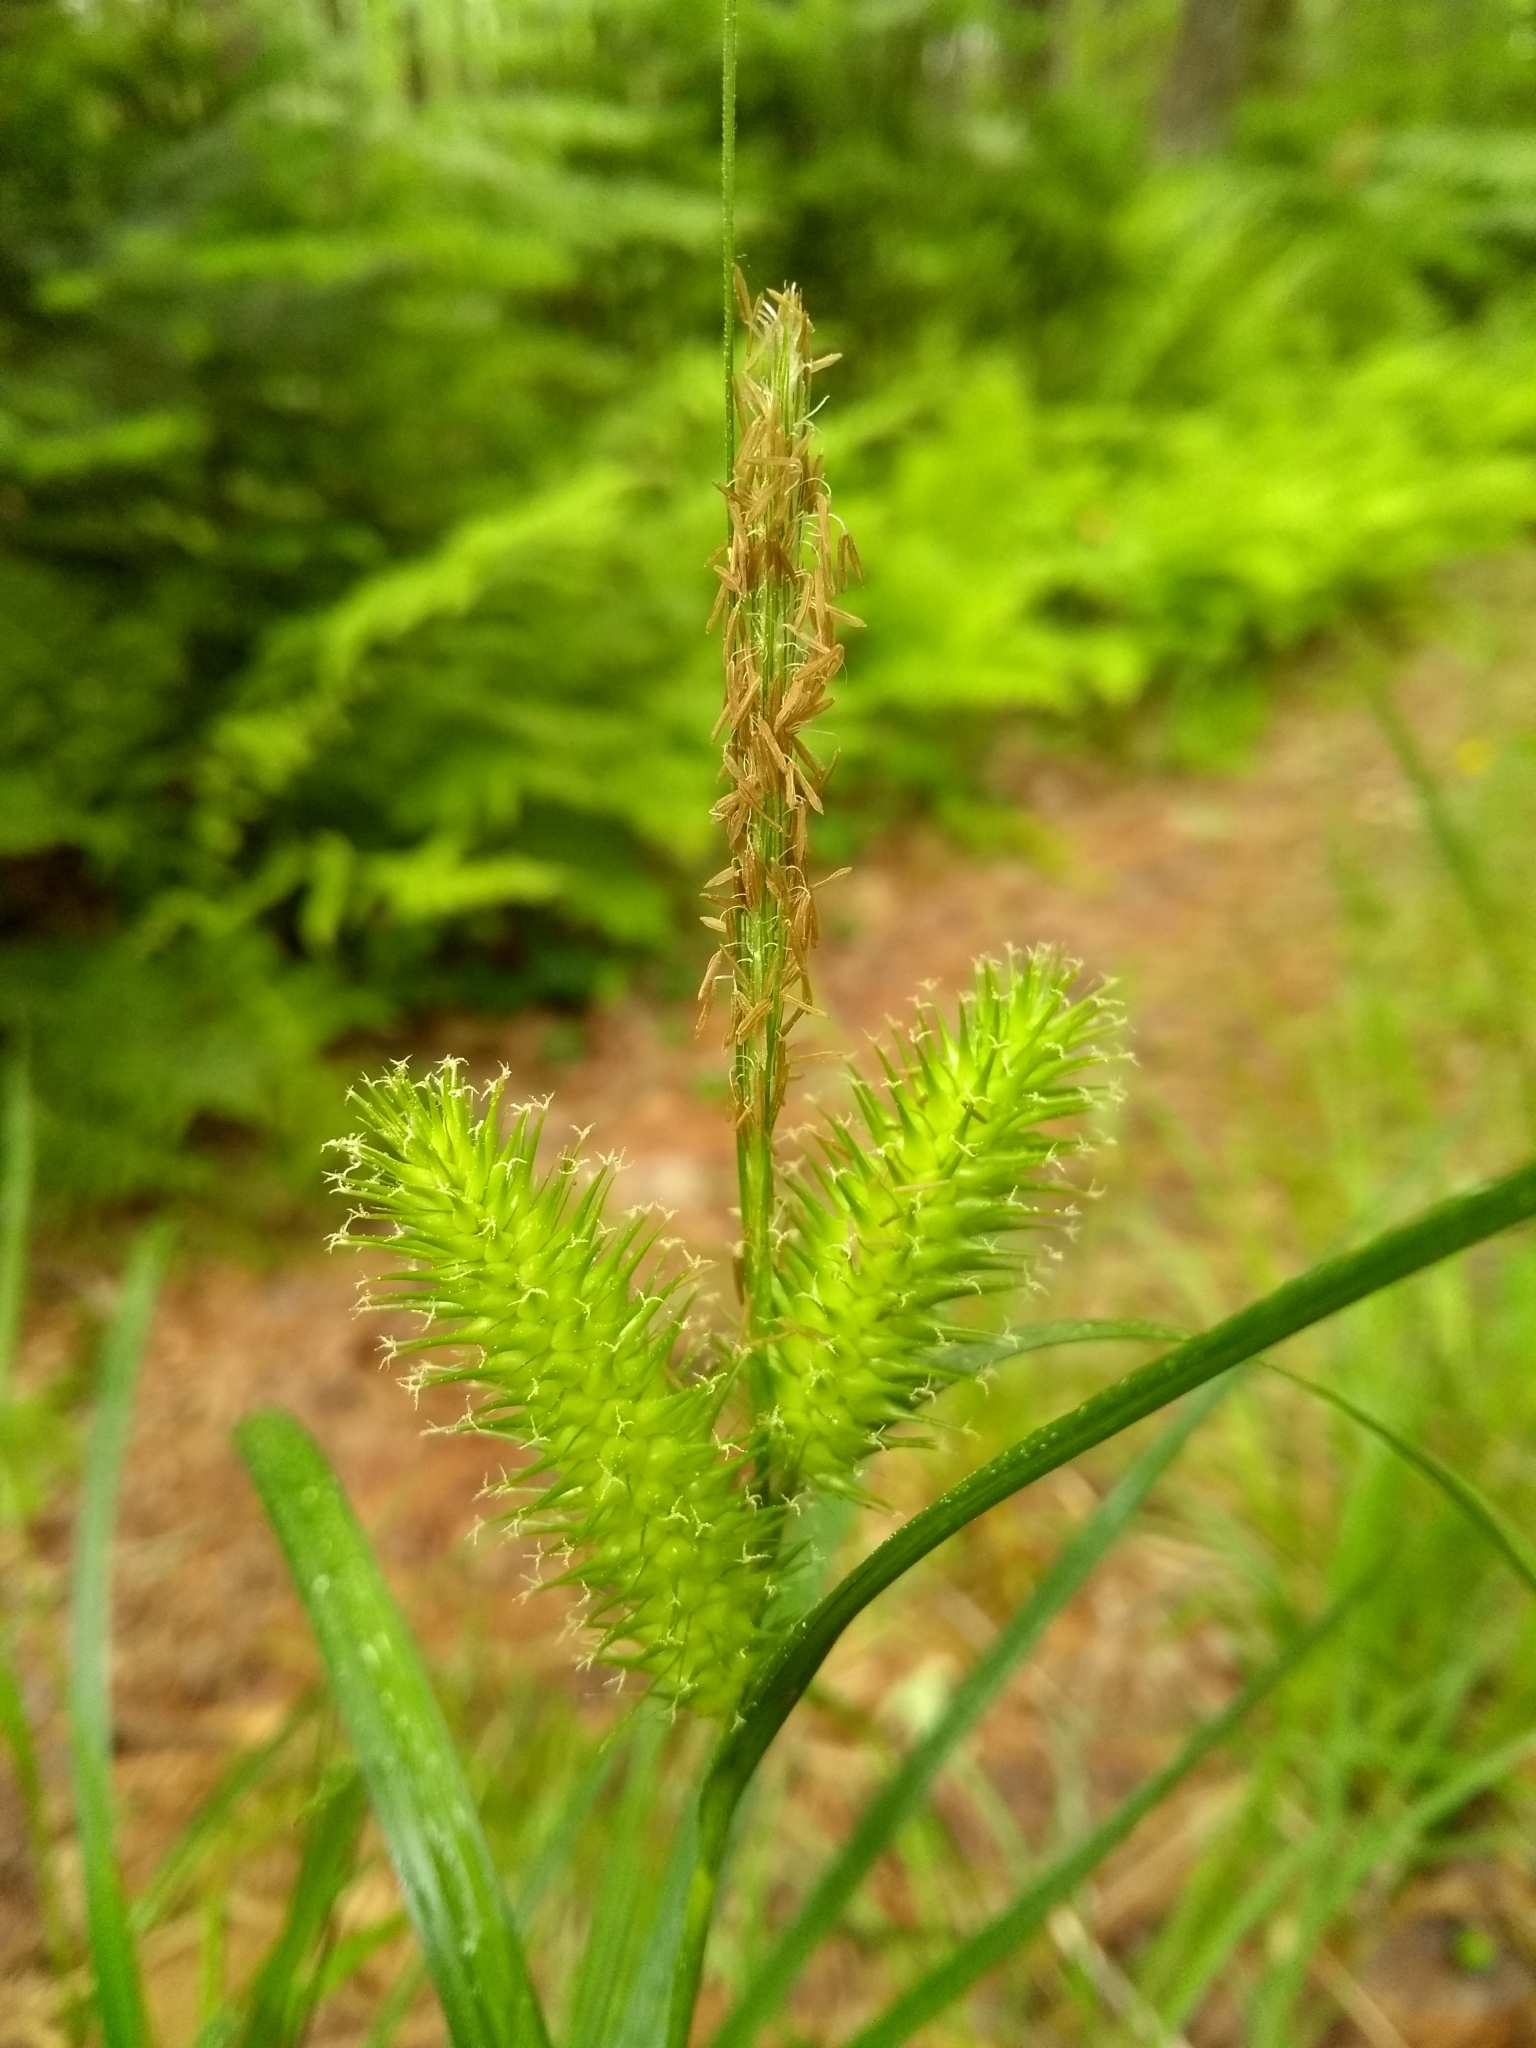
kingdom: Plantae
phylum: Tracheophyta
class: Liliopsida
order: Poales
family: Cyperaceae
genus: Carex
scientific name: Carex lurida
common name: Sallow sedge
